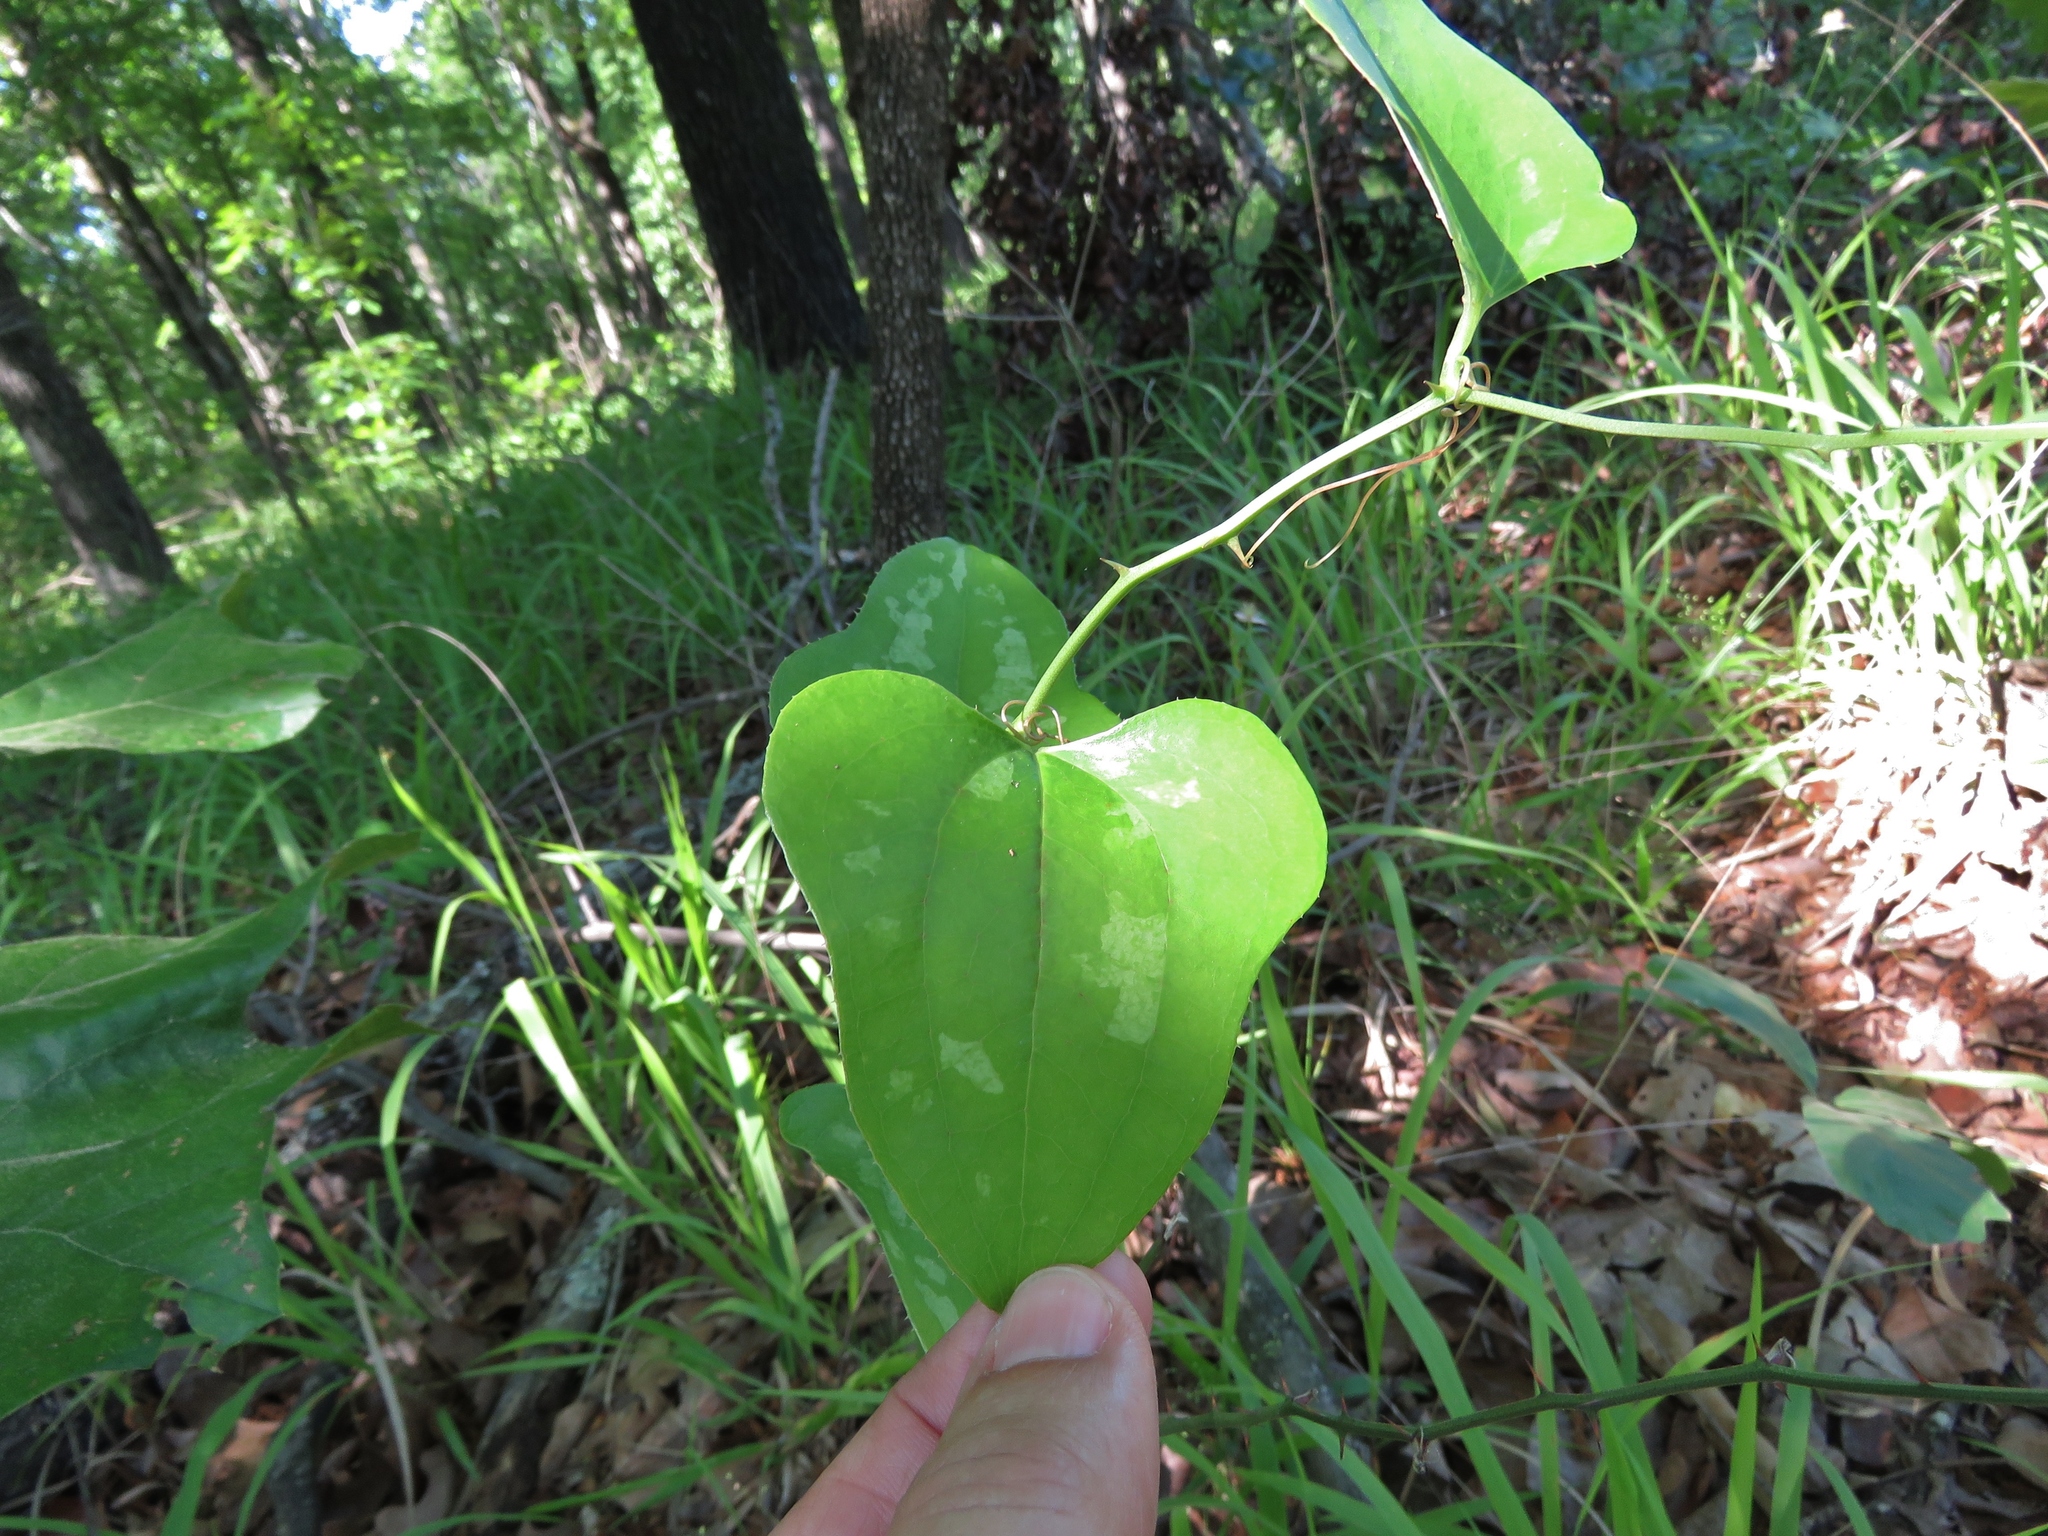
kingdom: Plantae
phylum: Tracheophyta
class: Liliopsida
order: Liliales
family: Smilacaceae
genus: Smilax
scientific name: Smilax bona-nox
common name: Catbrier
